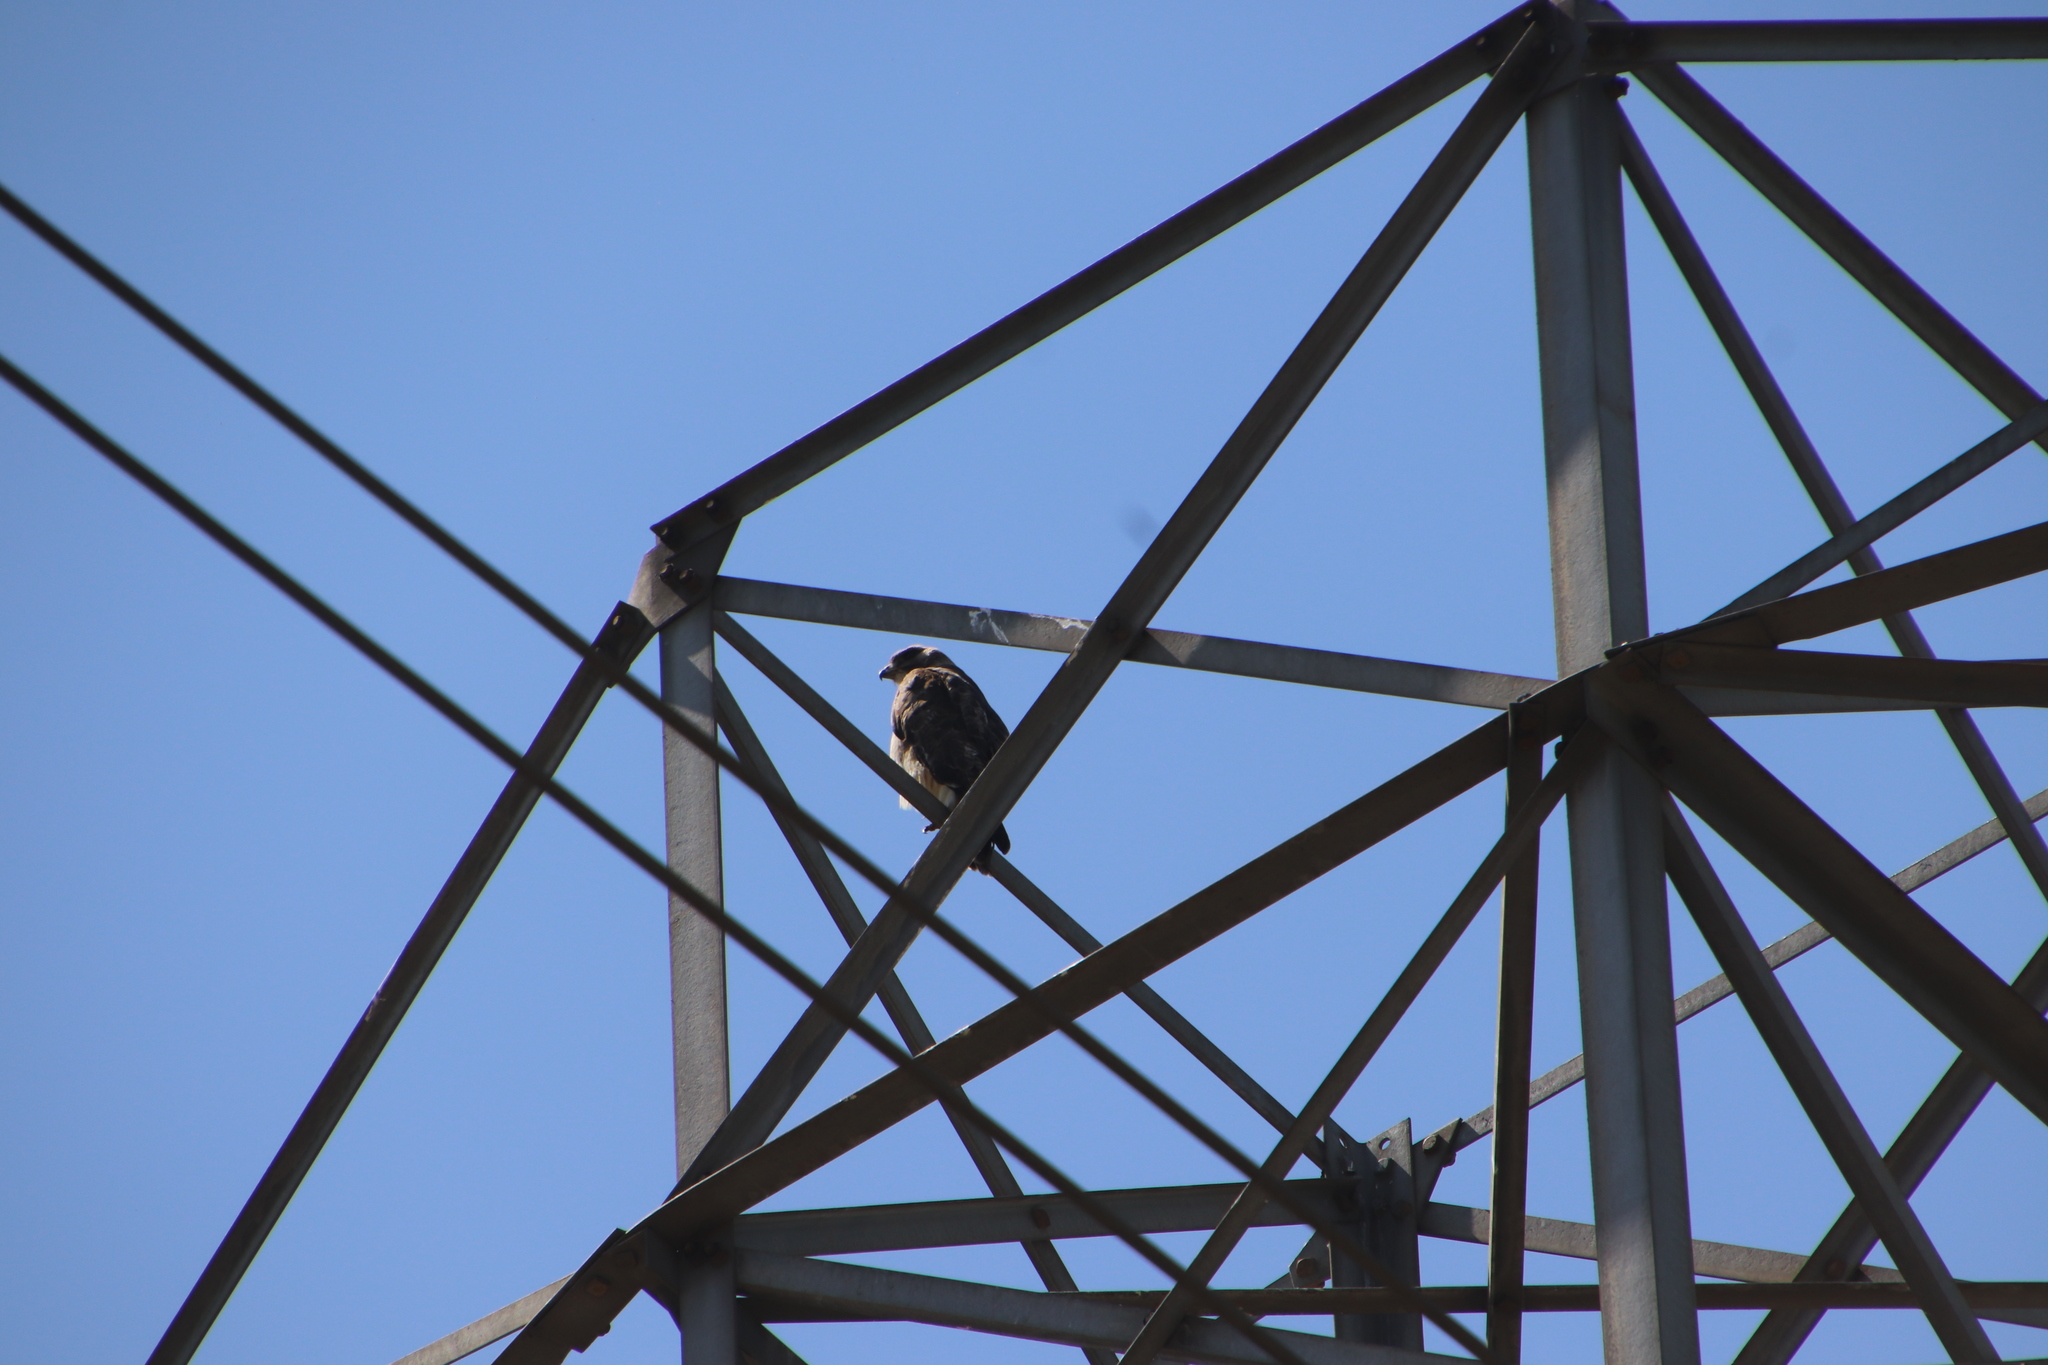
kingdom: Animalia
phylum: Chordata
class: Aves
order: Accipitriformes
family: Accipitridae
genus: Buteo
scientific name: Buteo jamaicensis
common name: Red-tailed hawk
